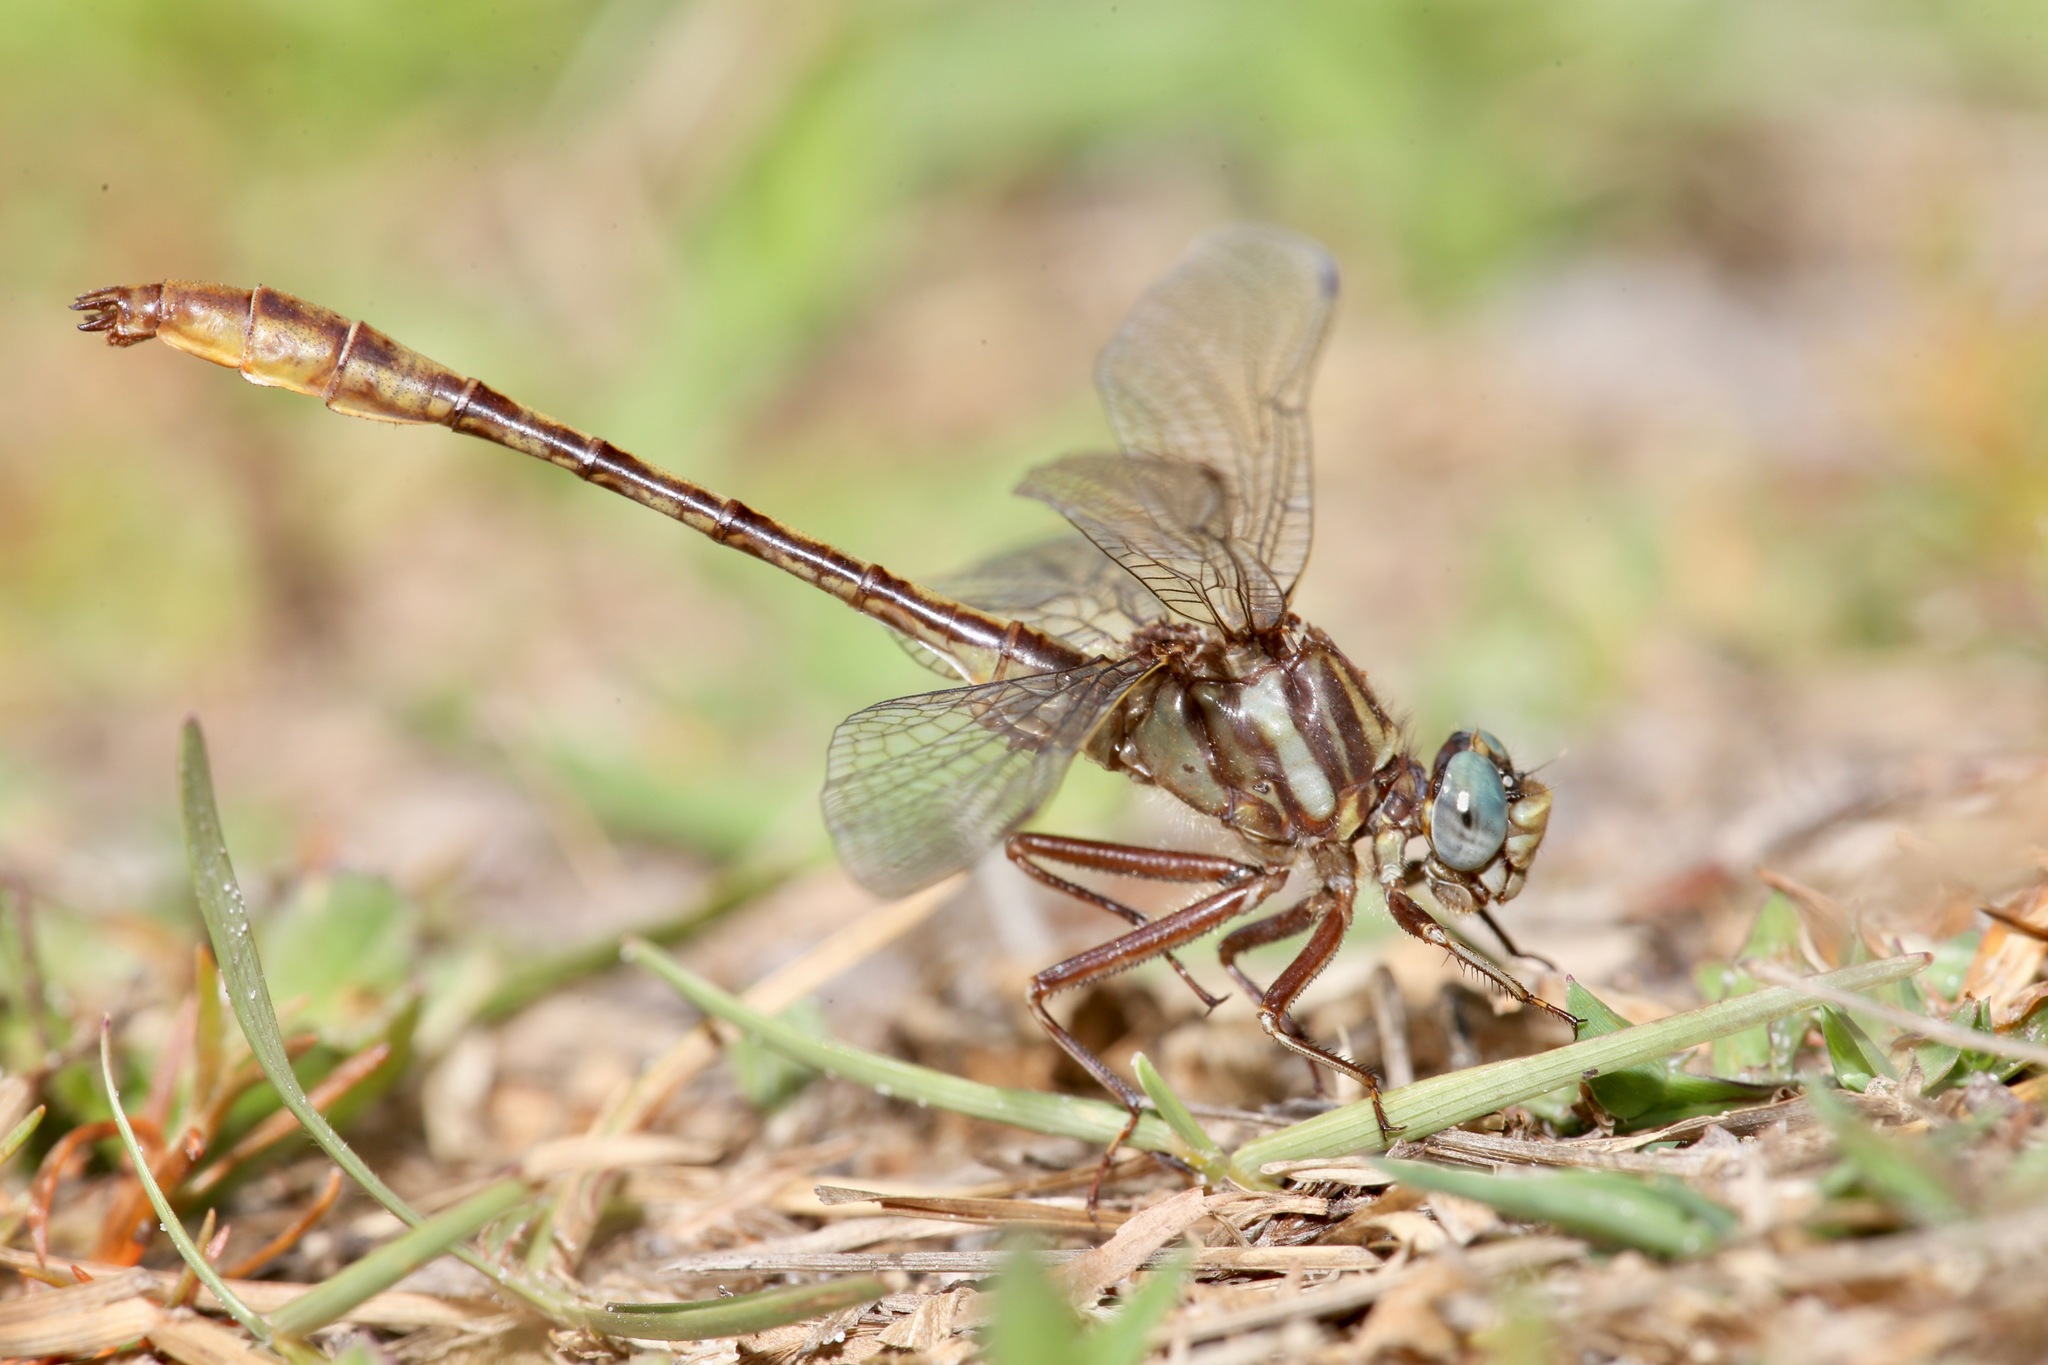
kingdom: Animalia
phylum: Arthropoda
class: Insecta
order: Odonata
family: Gomphidae
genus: Arigomphus
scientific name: Arigomphus pallidus
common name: Gray-green clubtail
